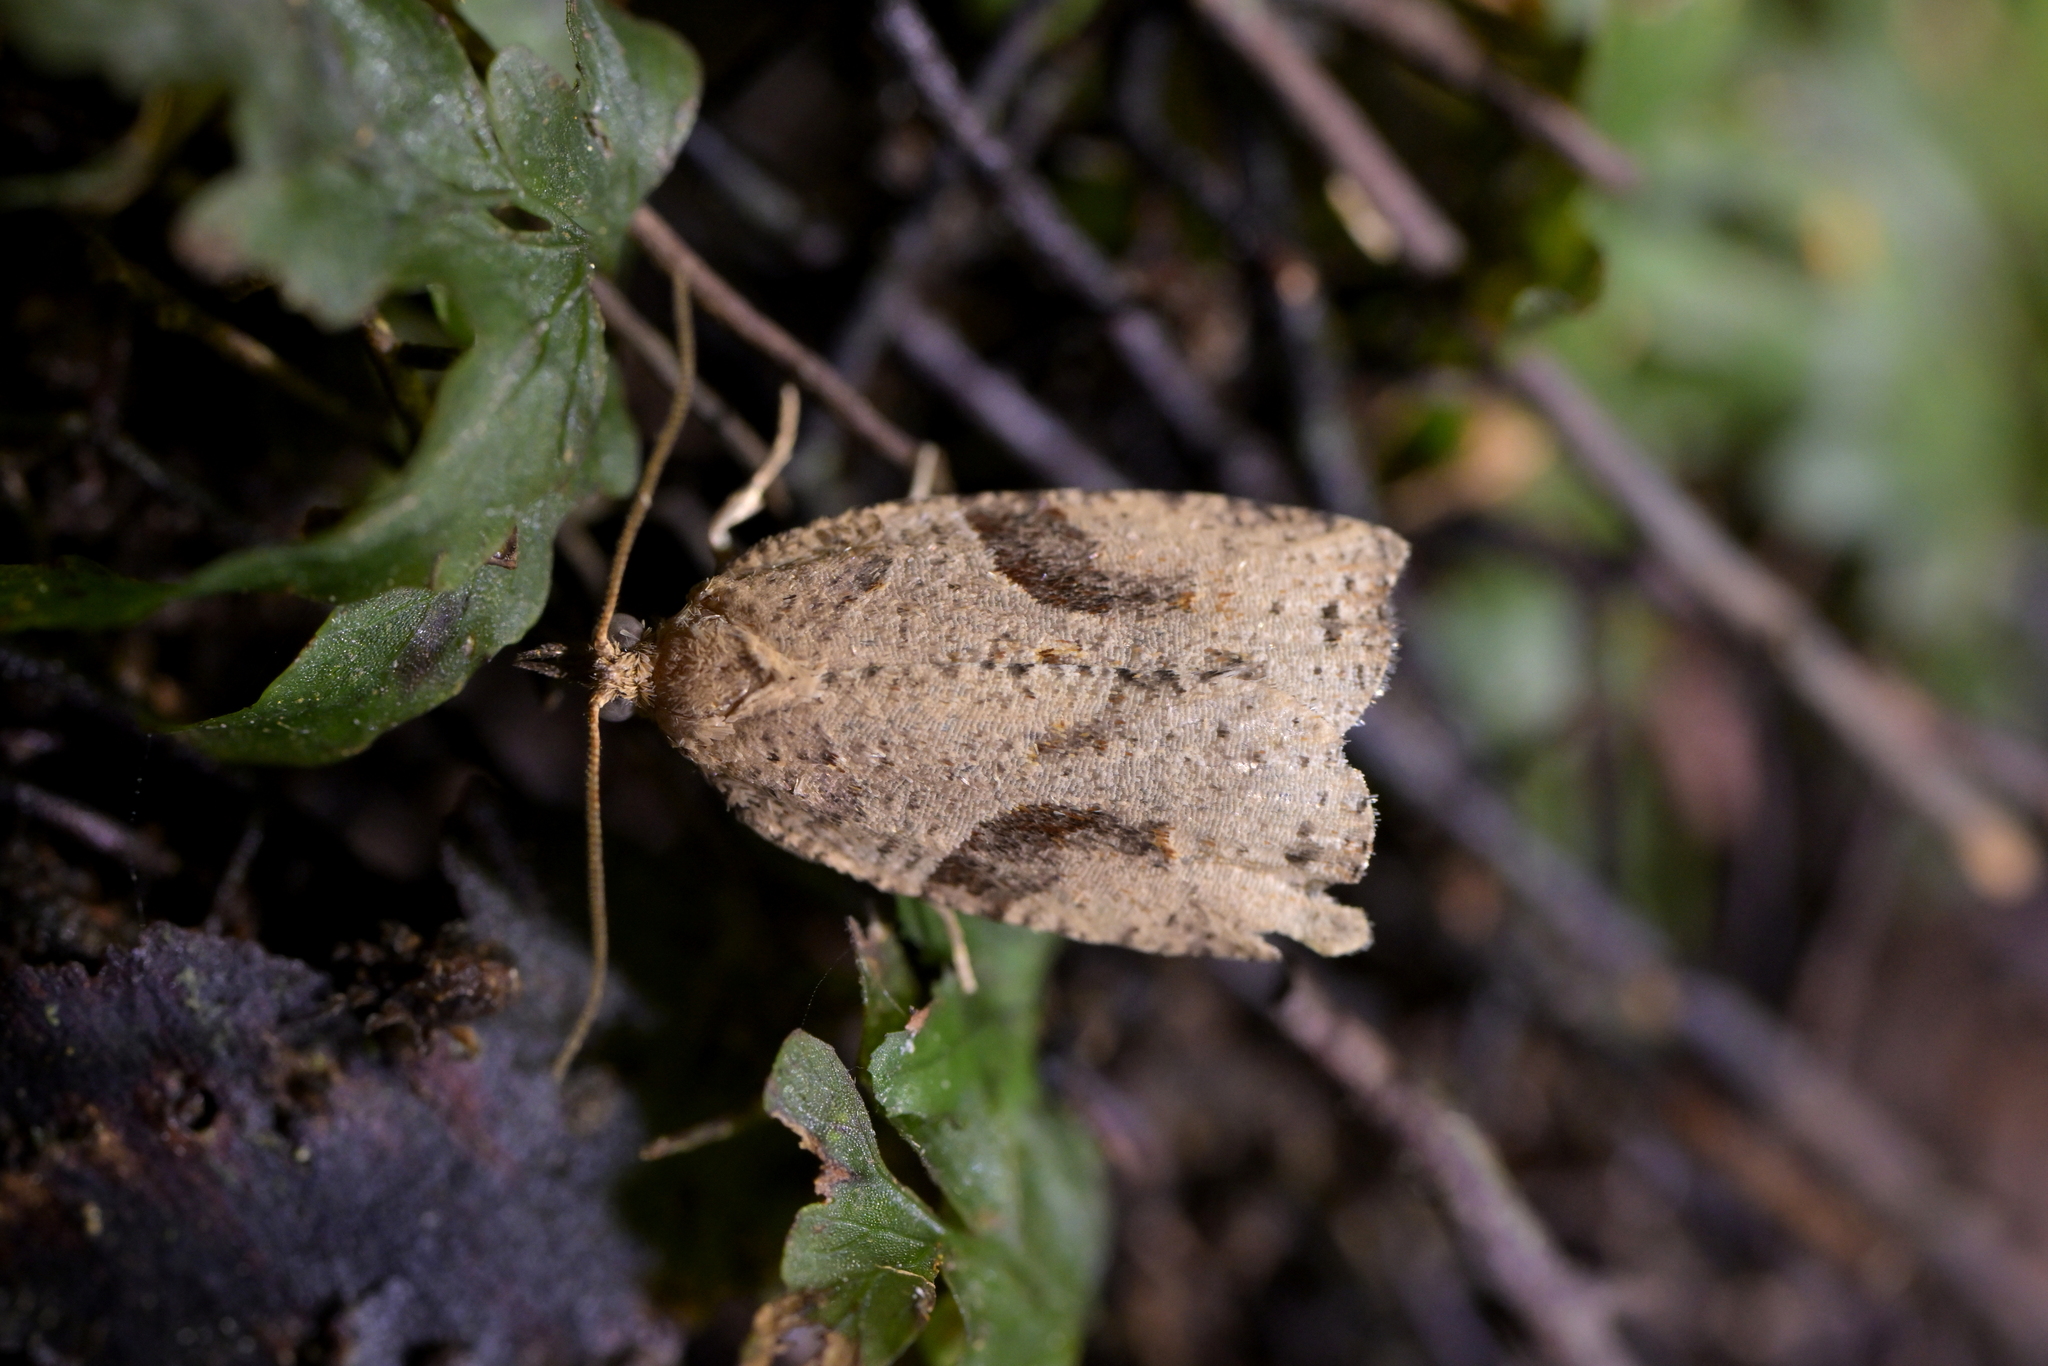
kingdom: Animalia
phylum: Arthropoda
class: Insecta
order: Lepidoptera
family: Tortricidae
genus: Apoctena
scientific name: Apoctena orthropis
